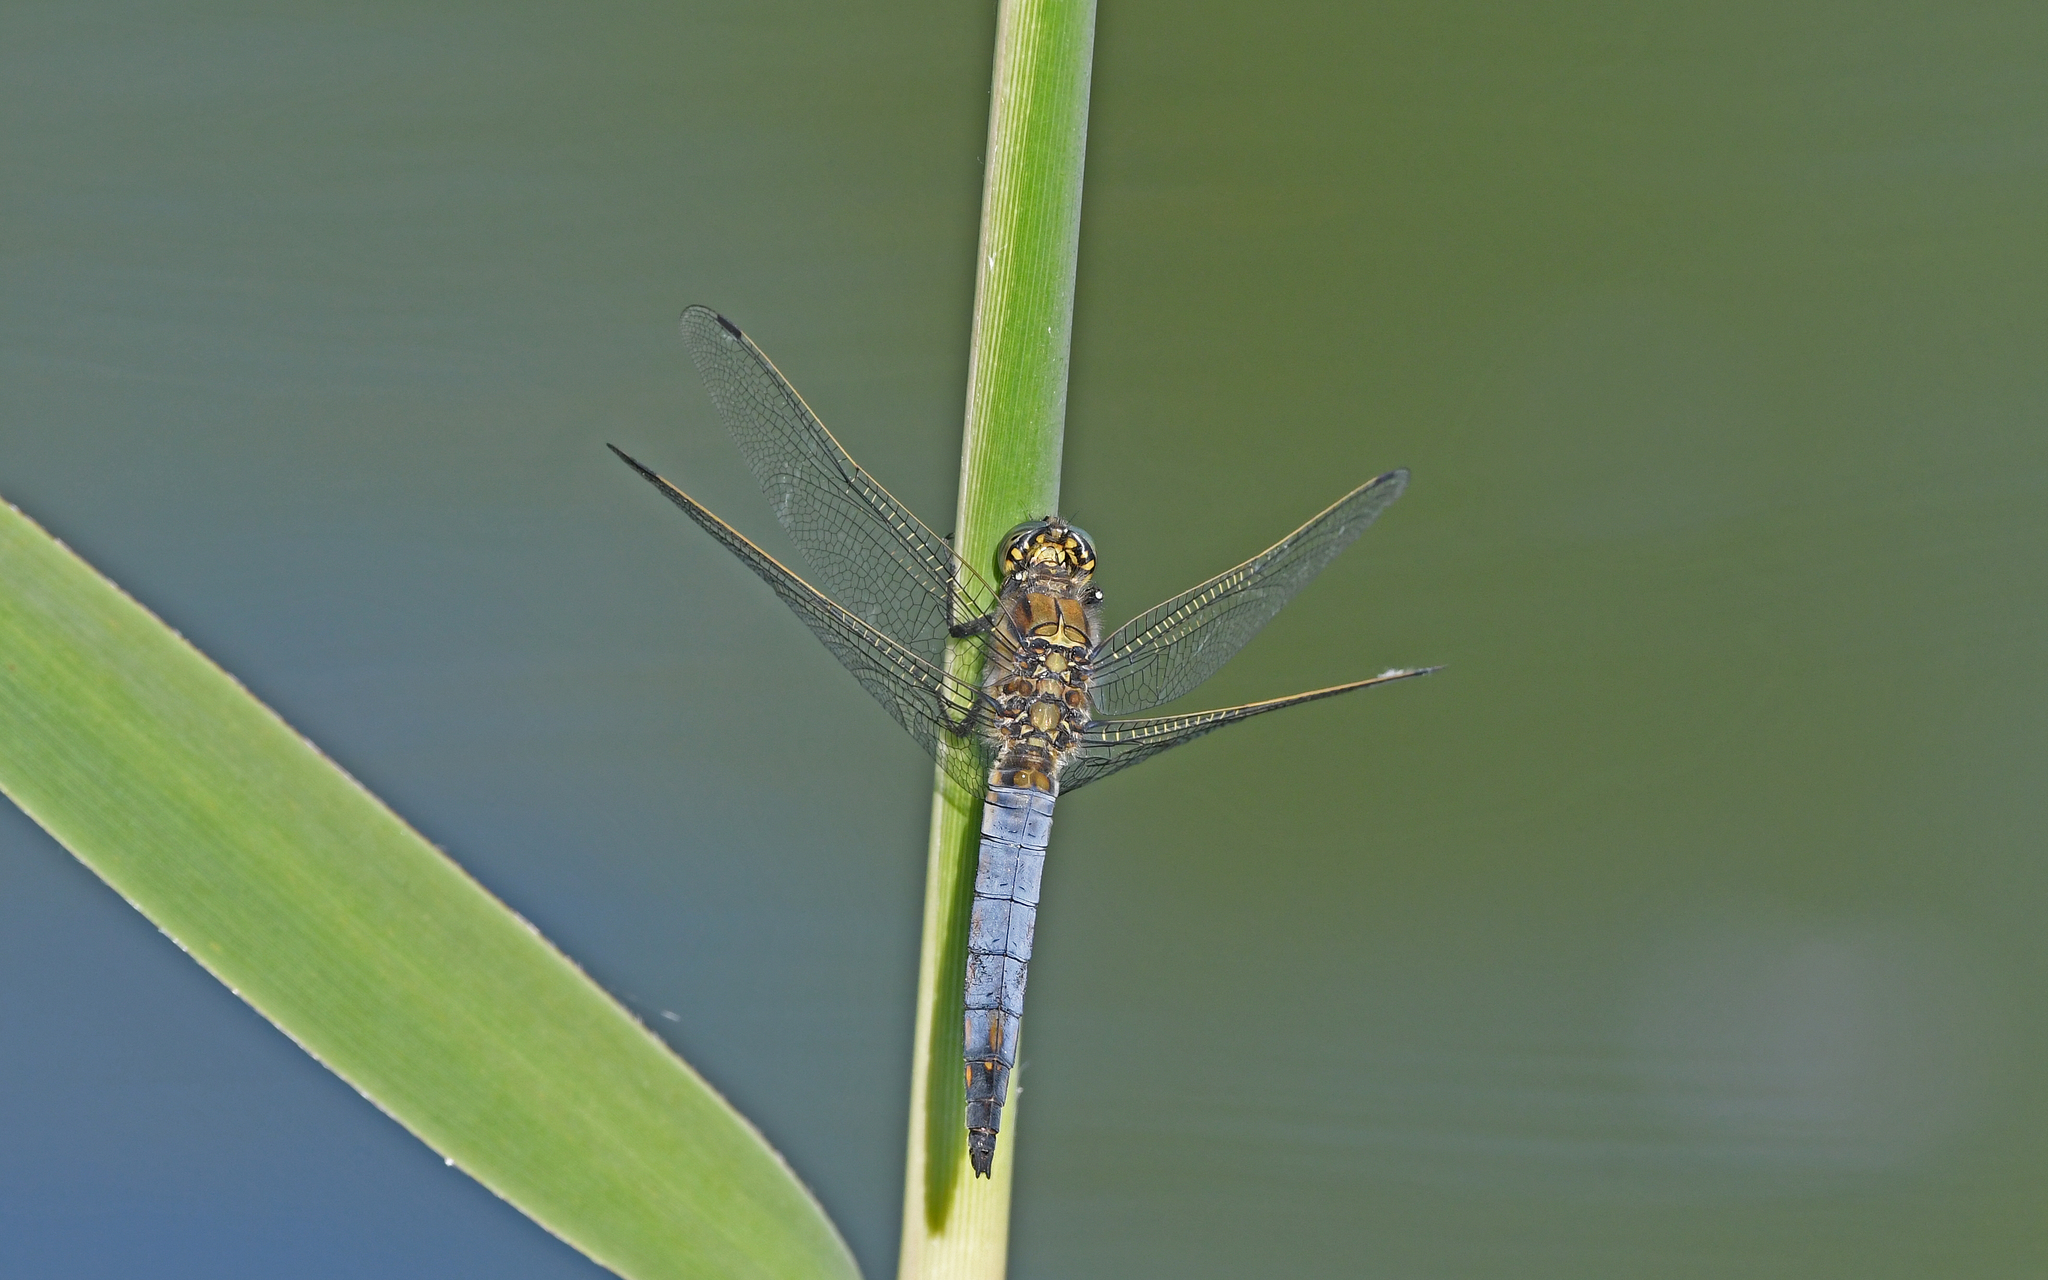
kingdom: Animalia
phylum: Arthropoda
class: Insecta
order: Odonata
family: Libellulidae
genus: Orthetrum
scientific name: Orthetrum cancellatum
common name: Black-tailed skimmer
